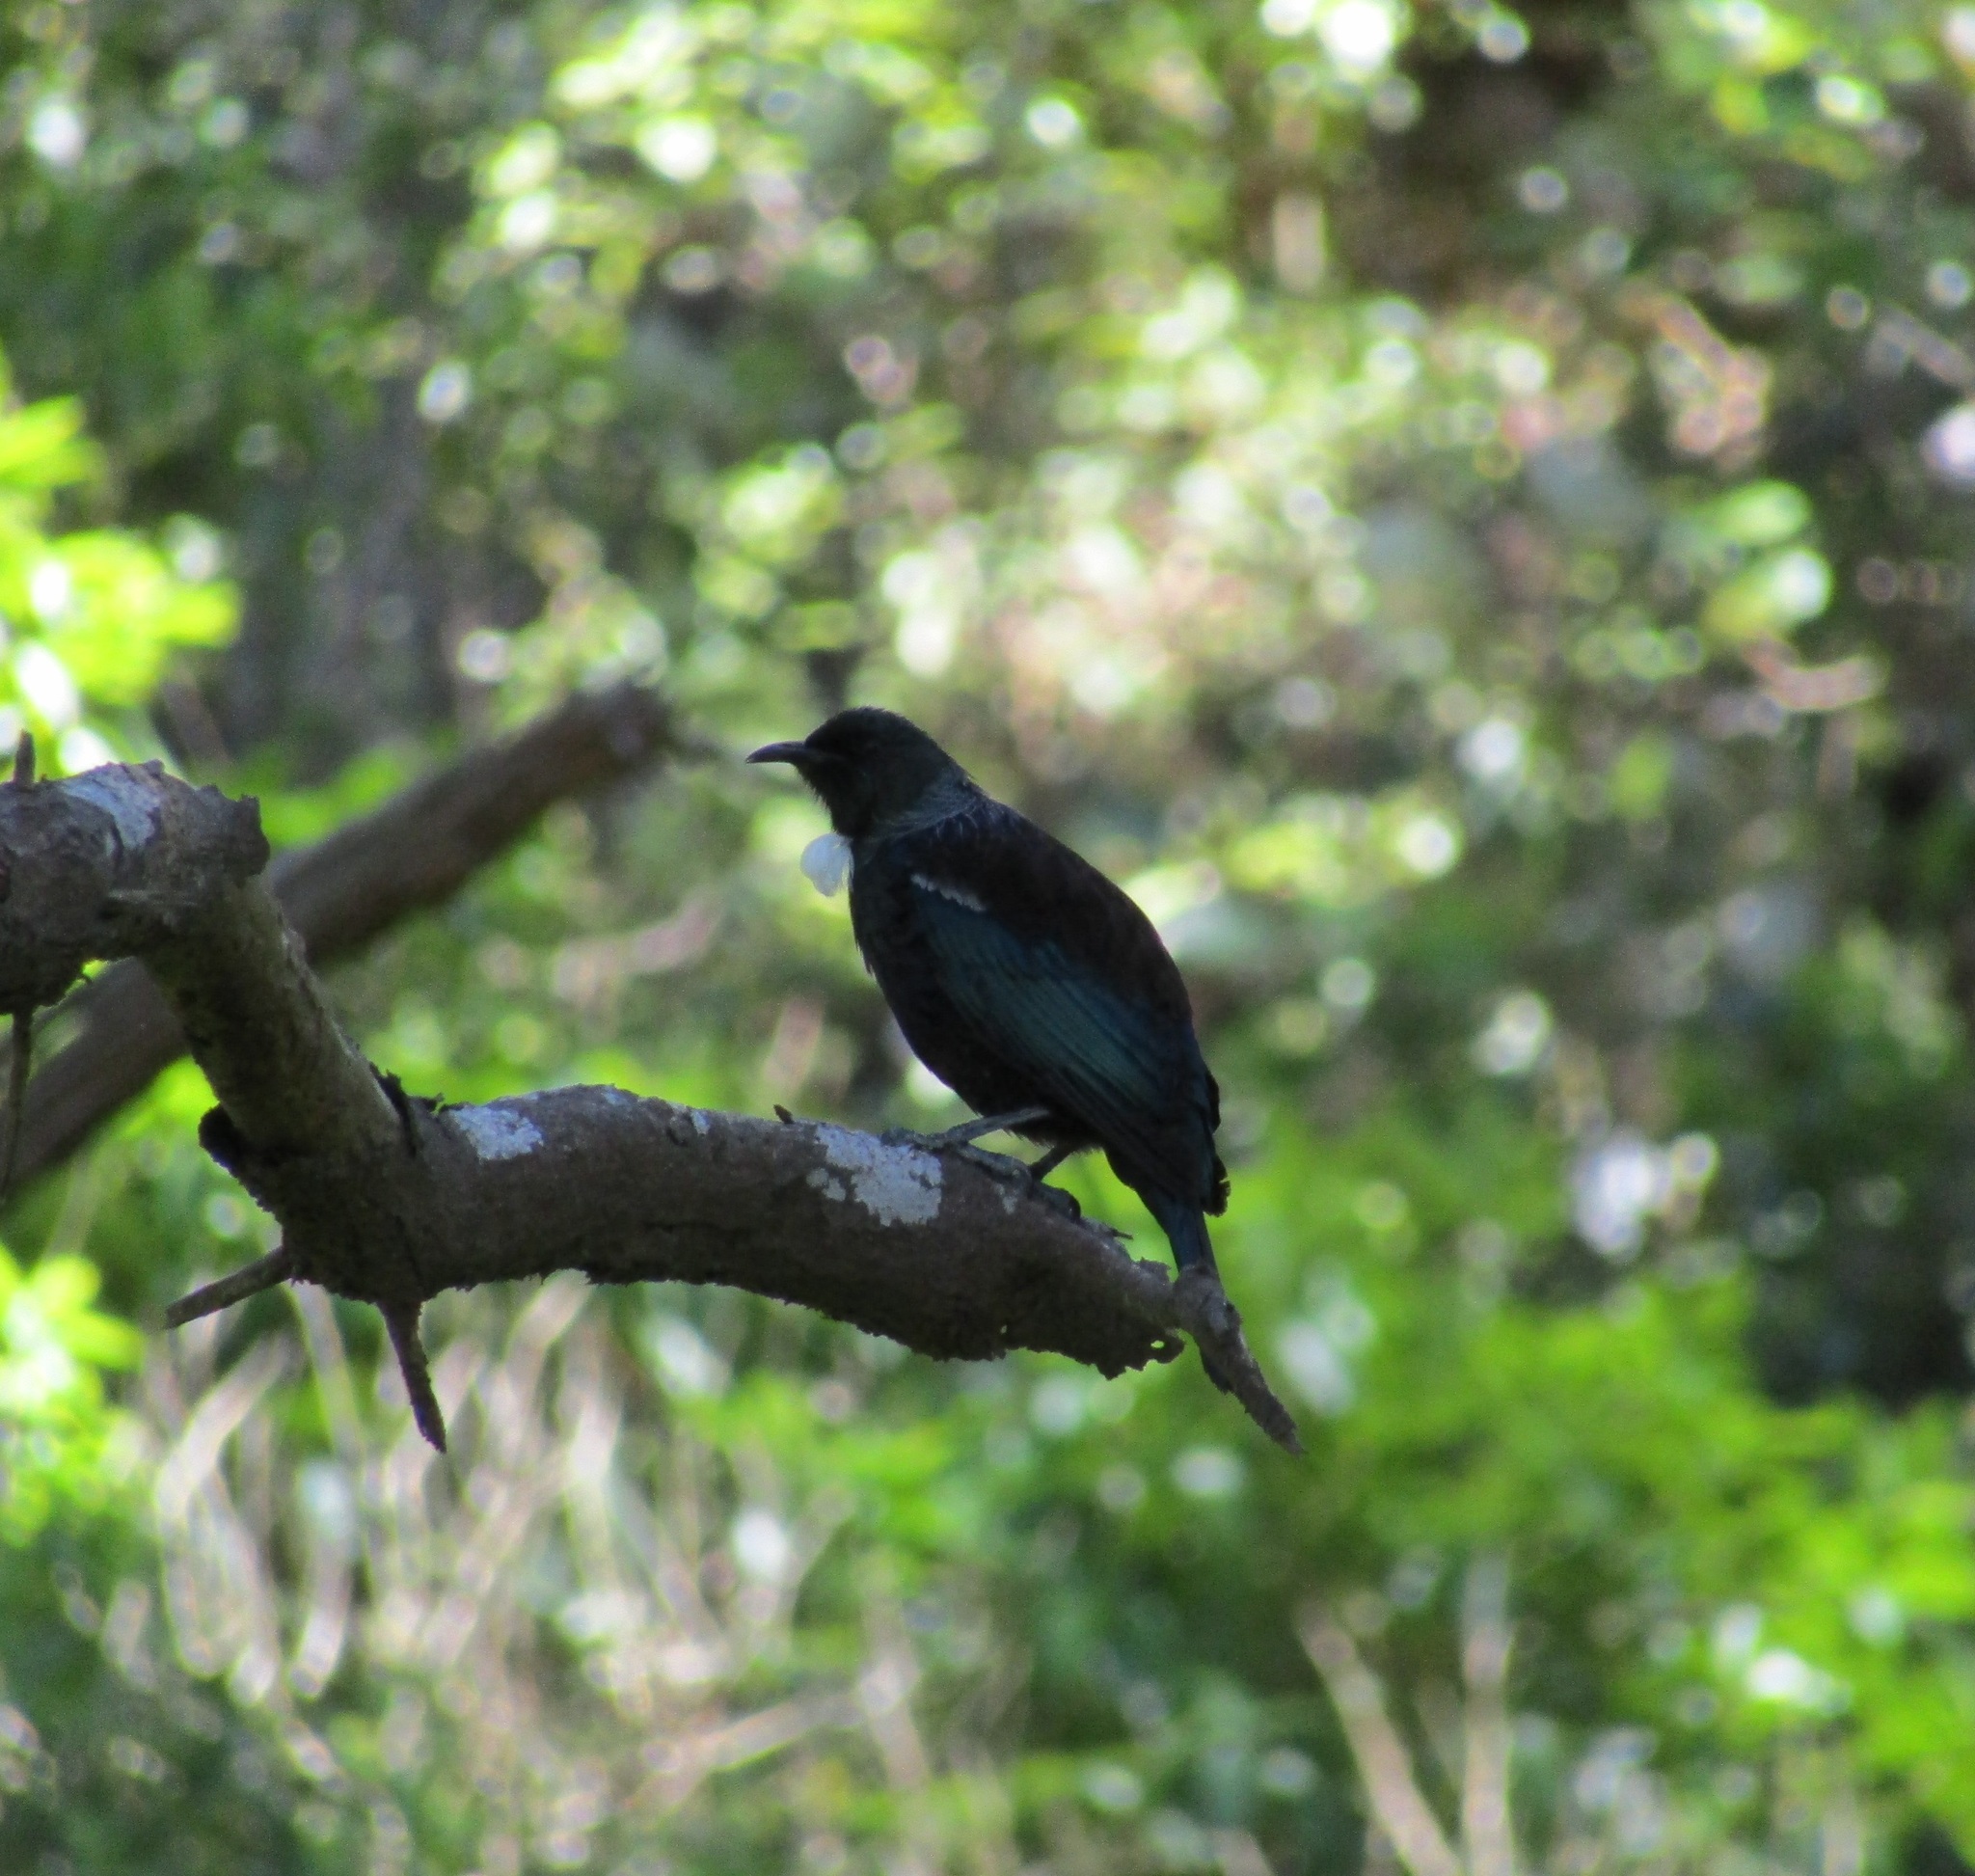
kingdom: Animalia
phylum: Chordata
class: Aves
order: Passeriformes
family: Meliphagidae
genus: Prosthemadera
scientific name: Prosthemadera novaeseelandiae
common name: Tui
